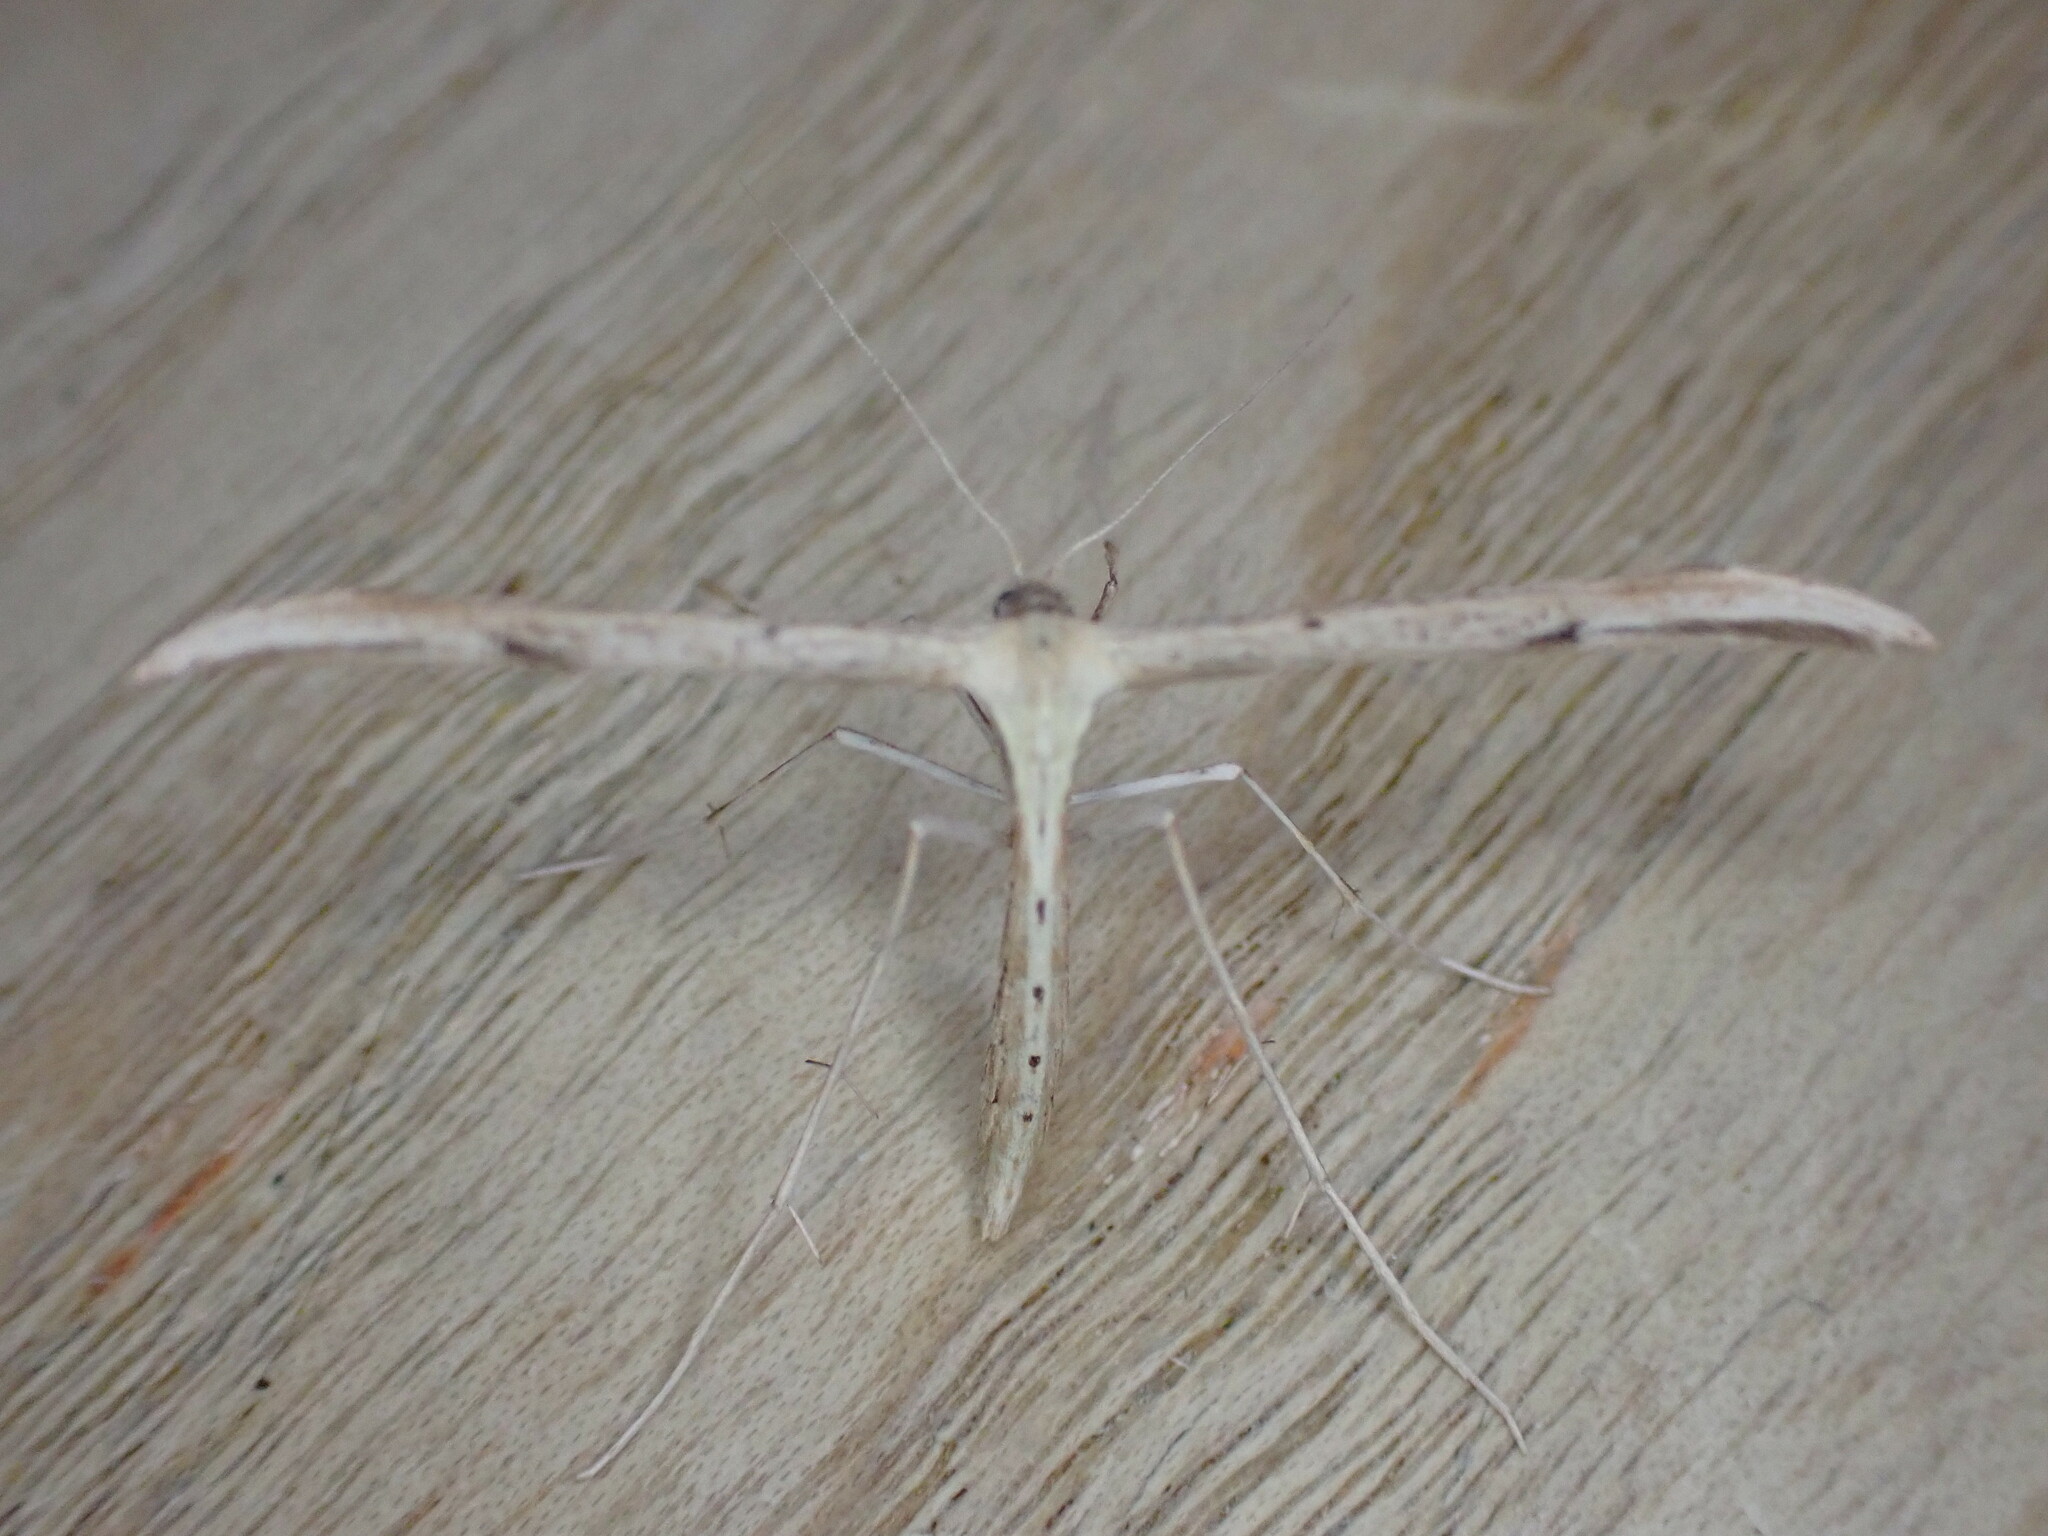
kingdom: Animalia
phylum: Arthropoda
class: Insecta
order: Lepidoptera
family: Pterophoridae
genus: Emmelina
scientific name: Emmelina monodactyla
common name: Common plume
